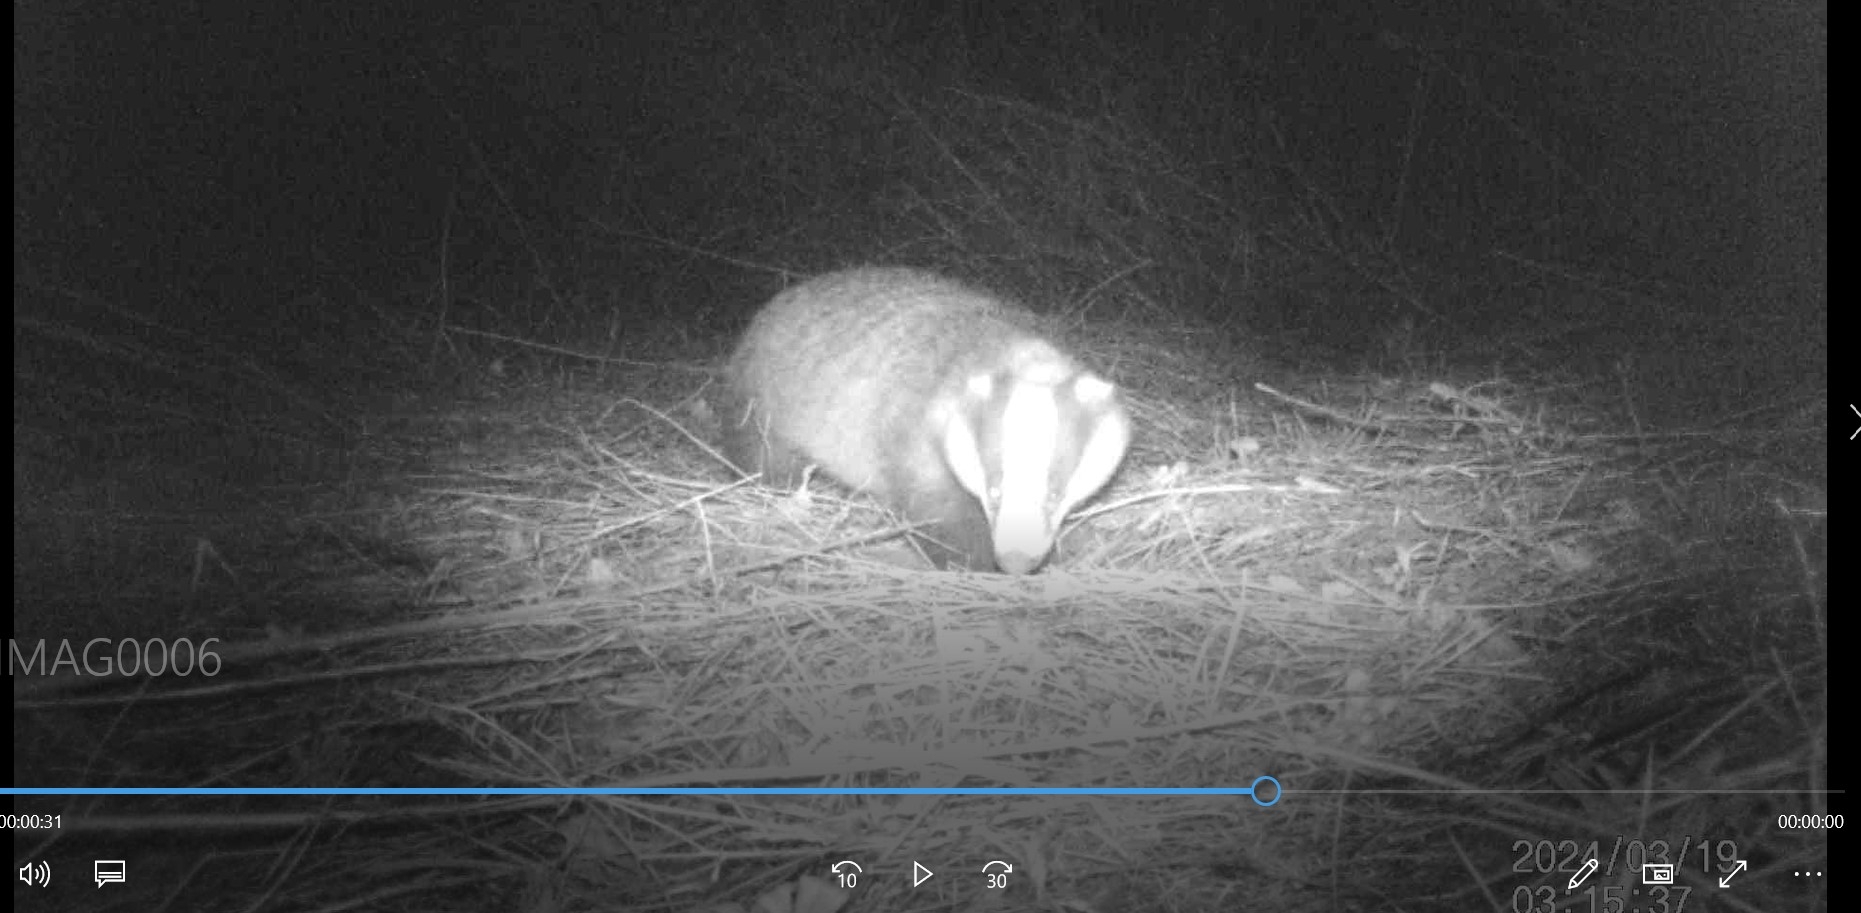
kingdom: Animalia
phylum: Chordata
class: Mammalia
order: Carnivora
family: Mustelidae
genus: Meles
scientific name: Meles meles
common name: Eurasian badger
